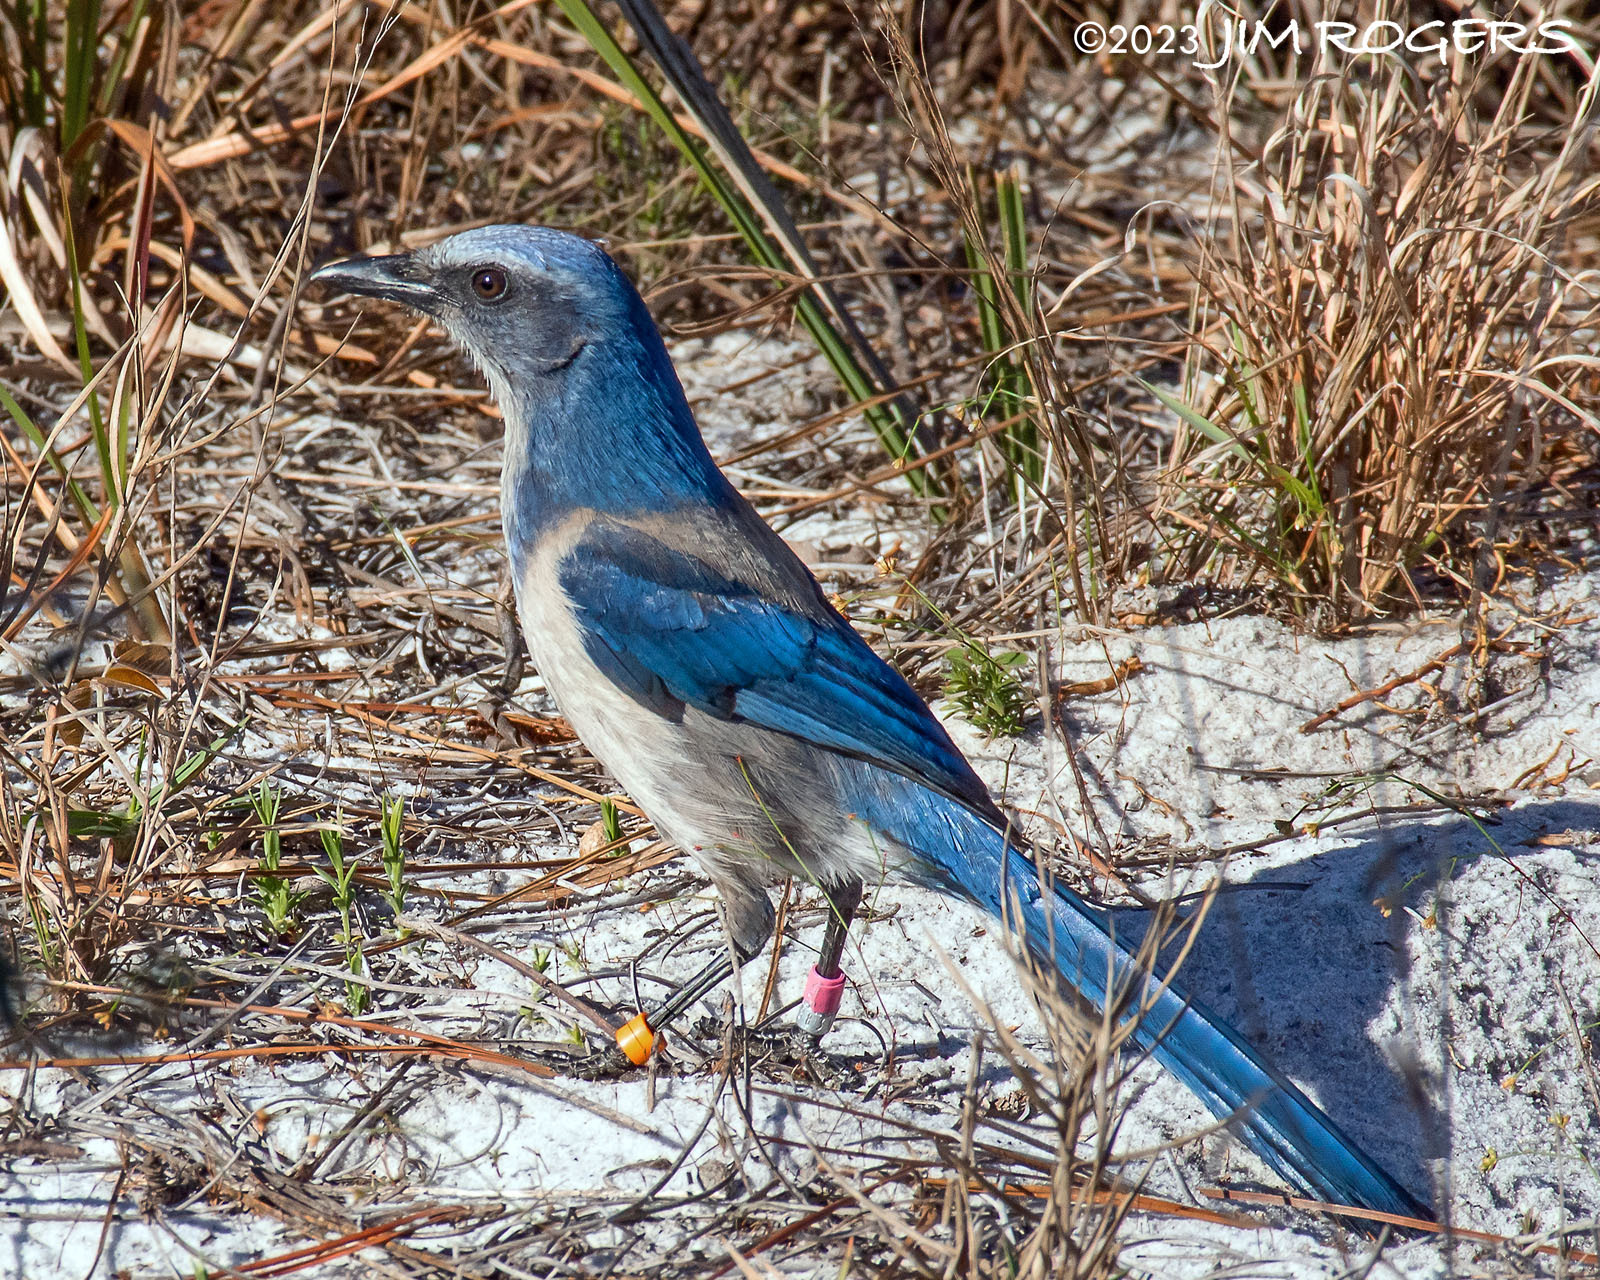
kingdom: Animalia
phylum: Chordata
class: Aves
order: Passeriformes
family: Corvidae
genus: Aphelocoma
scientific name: Aphelocoma coerulescens
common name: Florida scrub jay
